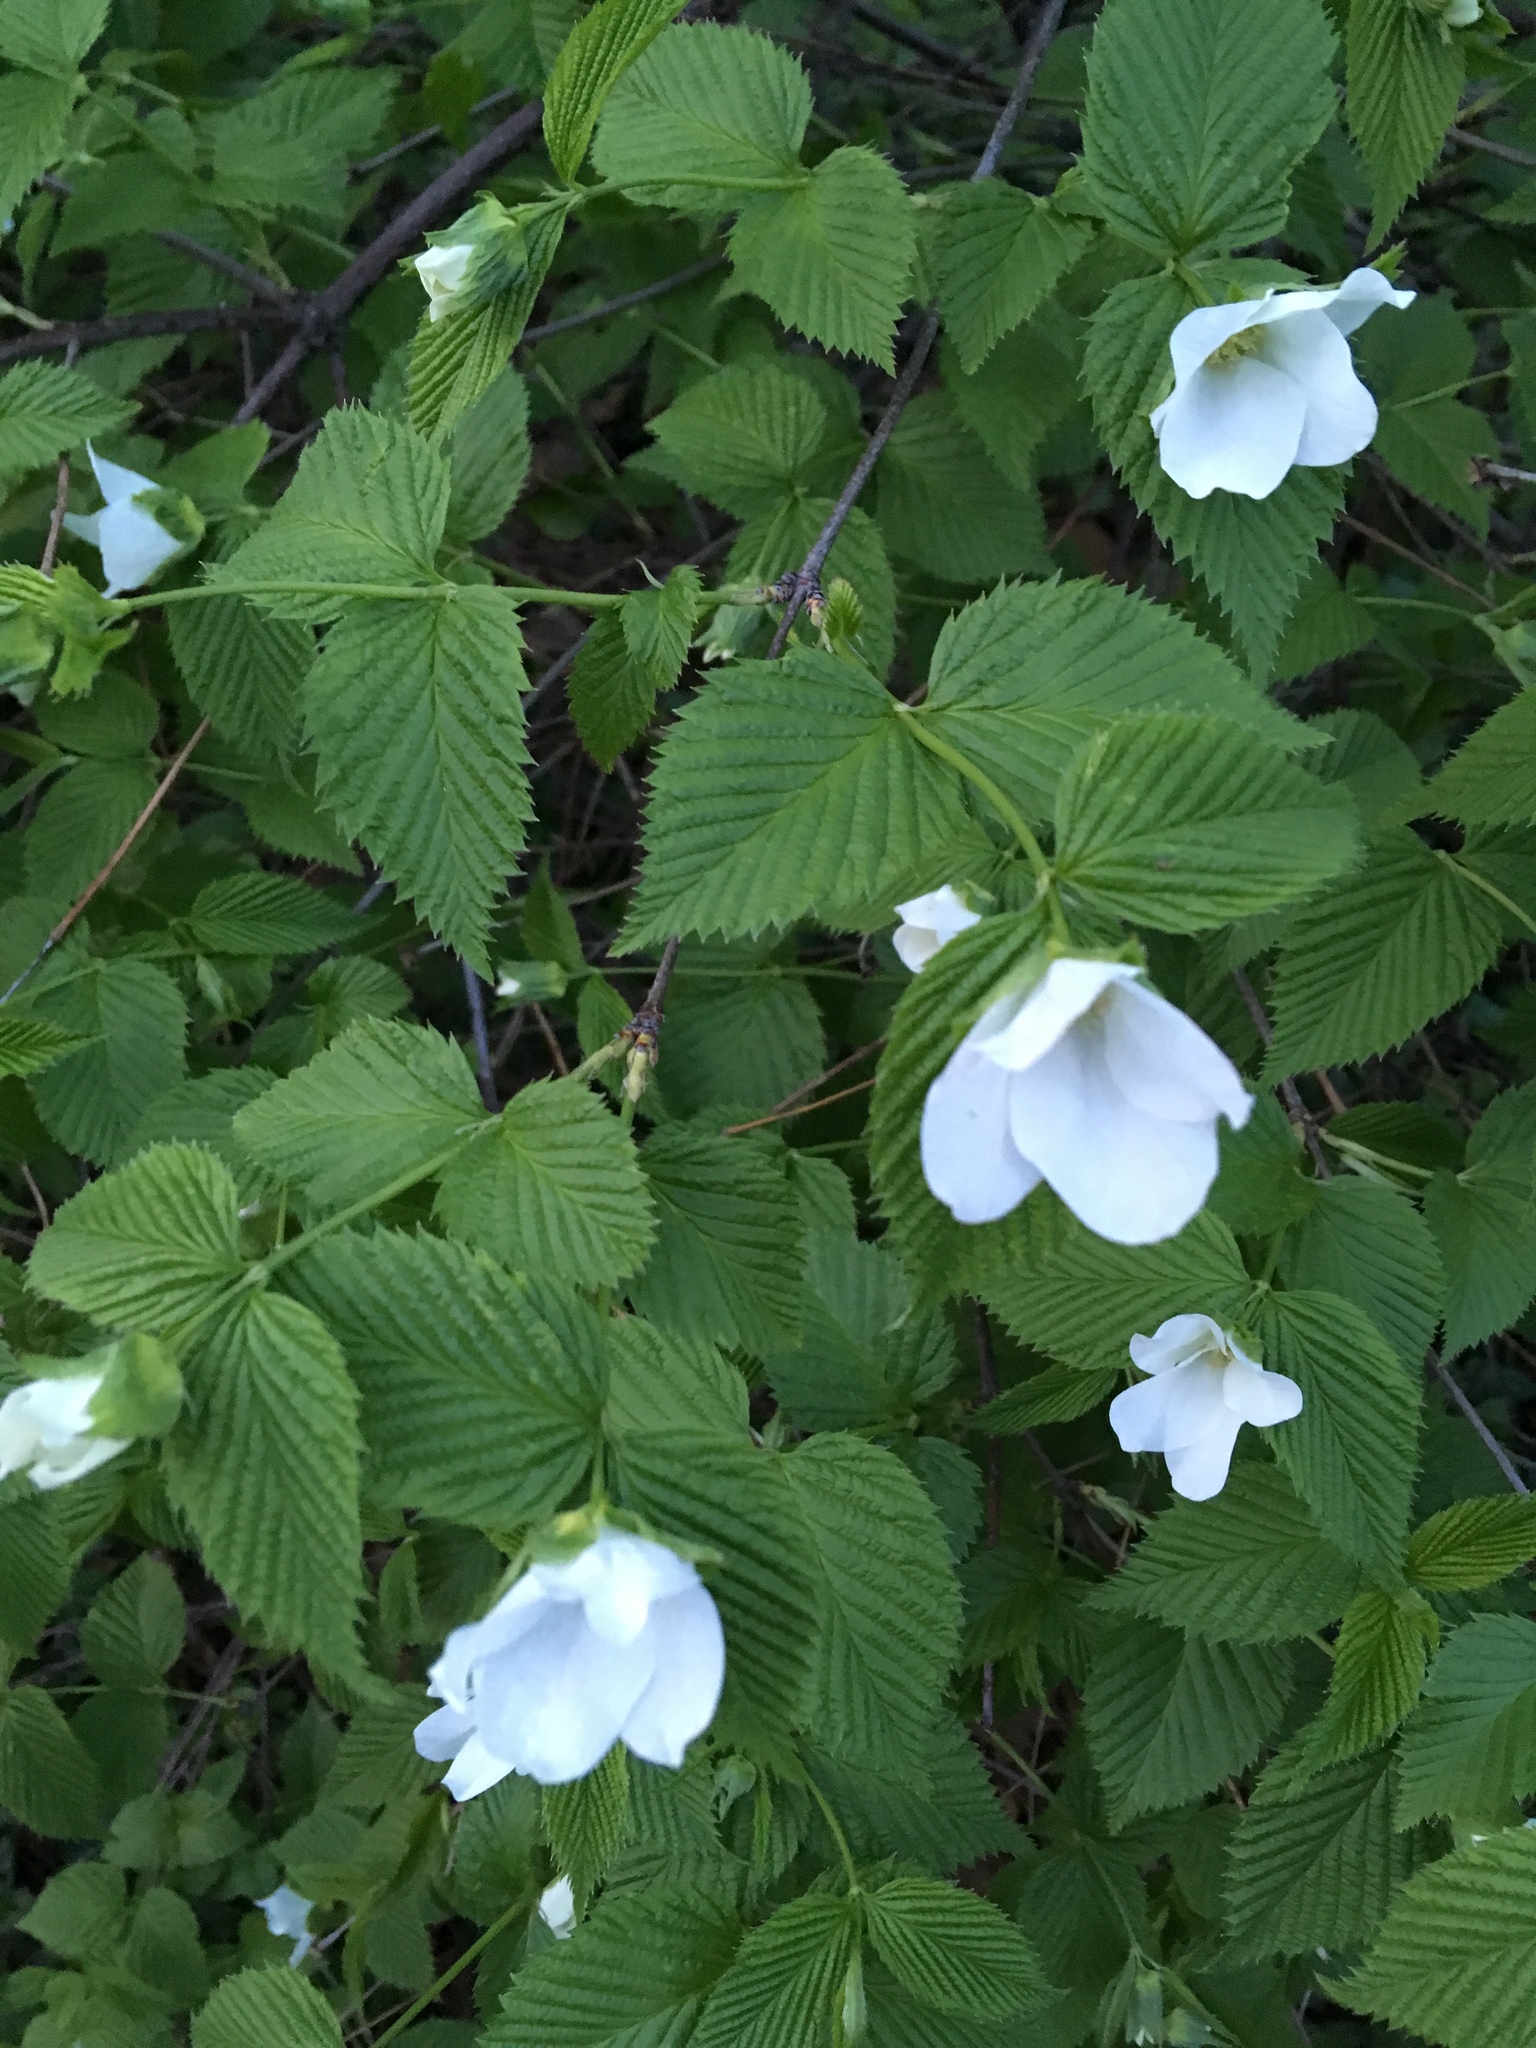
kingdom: Plantae
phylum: Tracheophyta
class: Magnoliopsida
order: Rosales
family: Rosaceae
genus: Rhodotypos
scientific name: Rhodotypos scandens
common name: Jetbead
